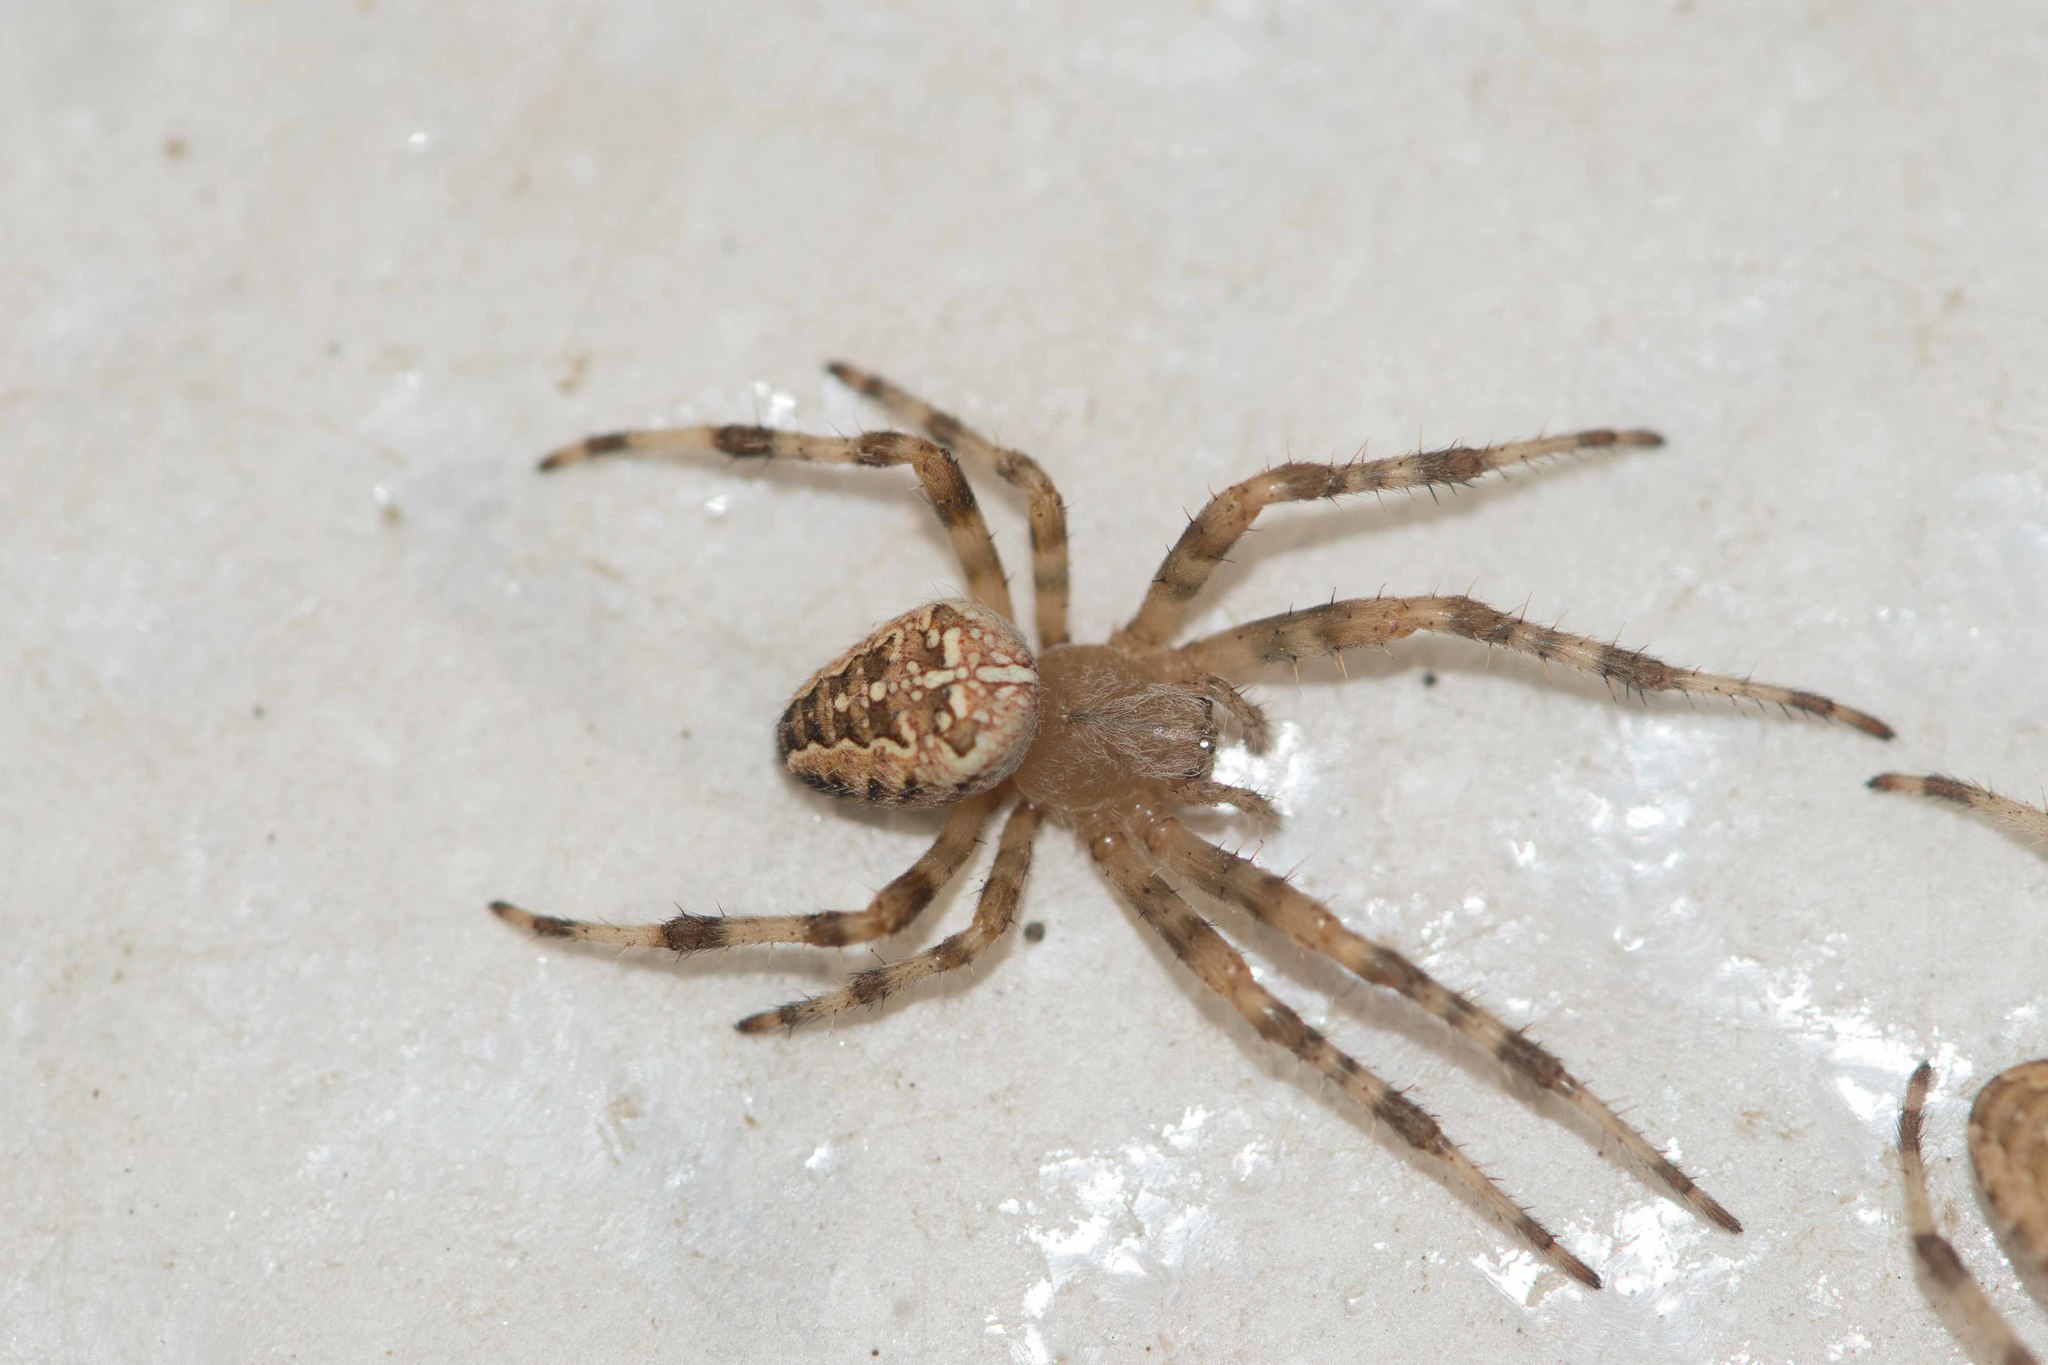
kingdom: Animalia
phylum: Arthropoda
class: Arachnida
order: Araneae
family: Araneidae
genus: Araneus
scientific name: Araneus diadematus
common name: Cross orbweaver
